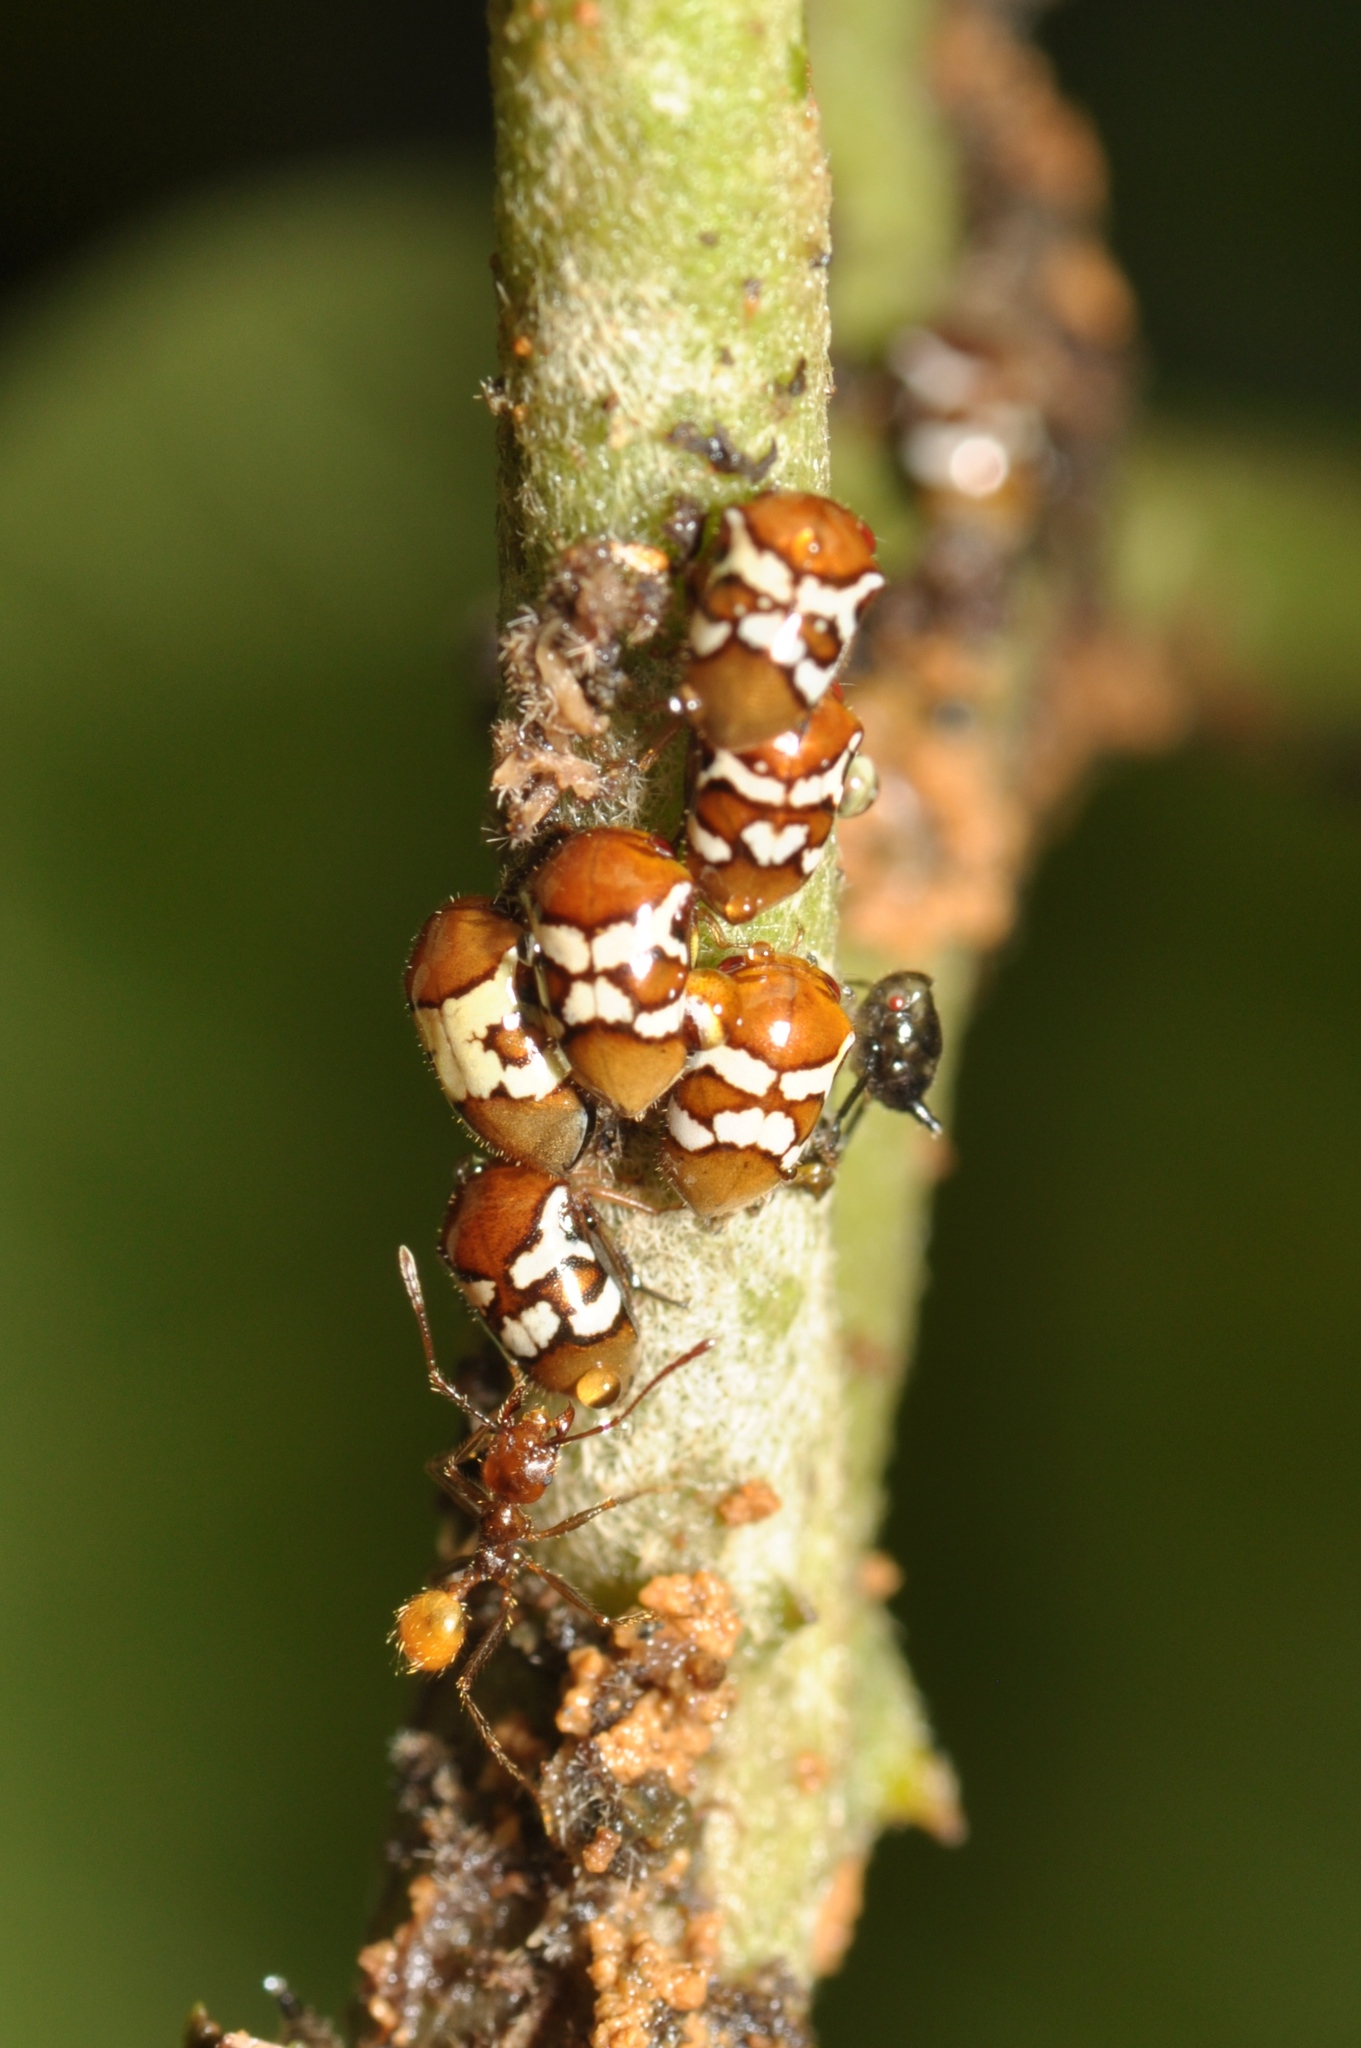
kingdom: Animalia
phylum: Arthropoda
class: Insecta
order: Hemiptera
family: Membracidae
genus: Tropidolomia
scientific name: Tropidolomia imperfecta
